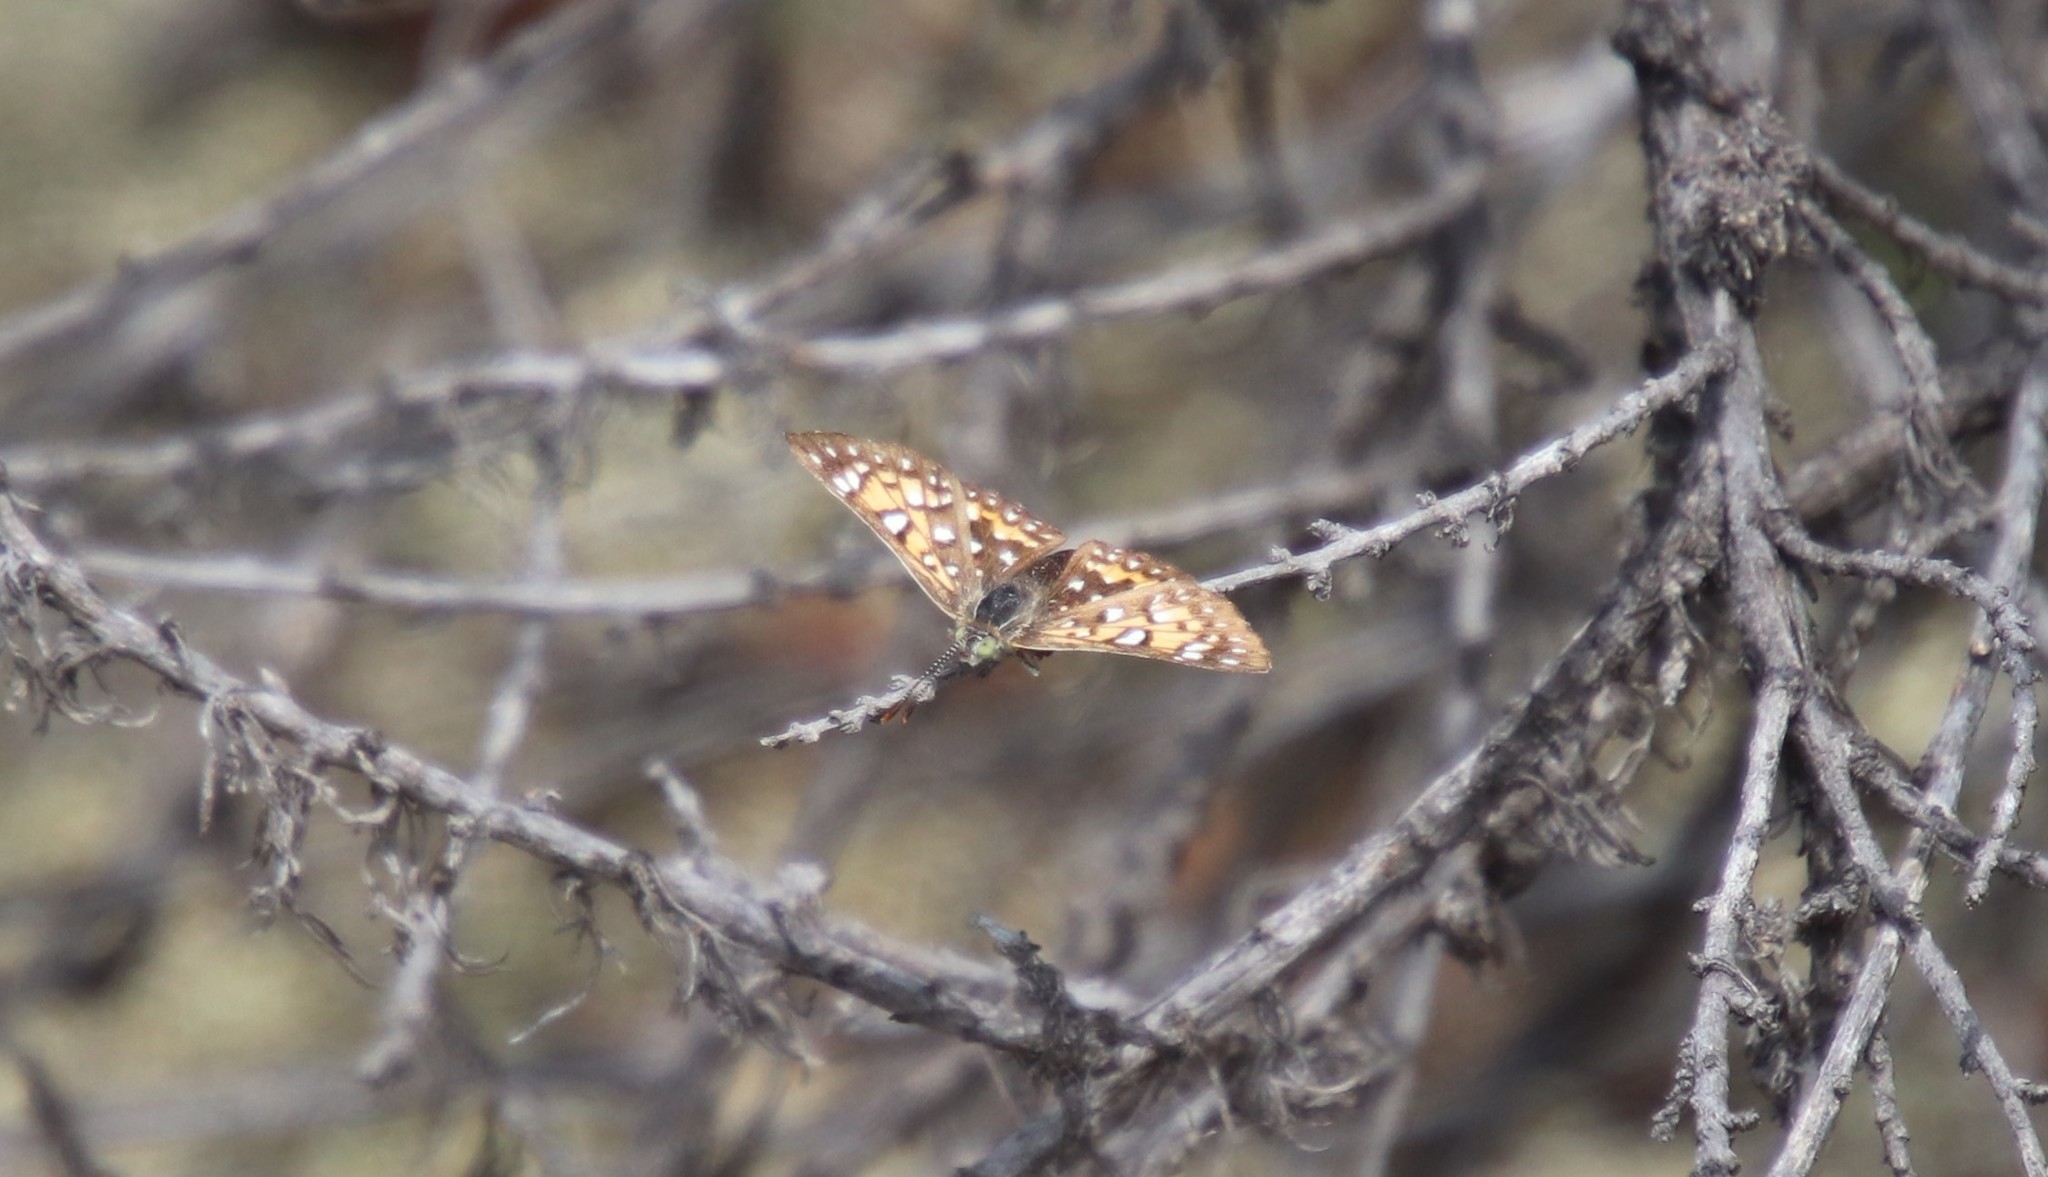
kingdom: Animalia
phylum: Arthropoda
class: Insecta
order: Lepidoptera
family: Riodinidae
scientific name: Riodinidae
